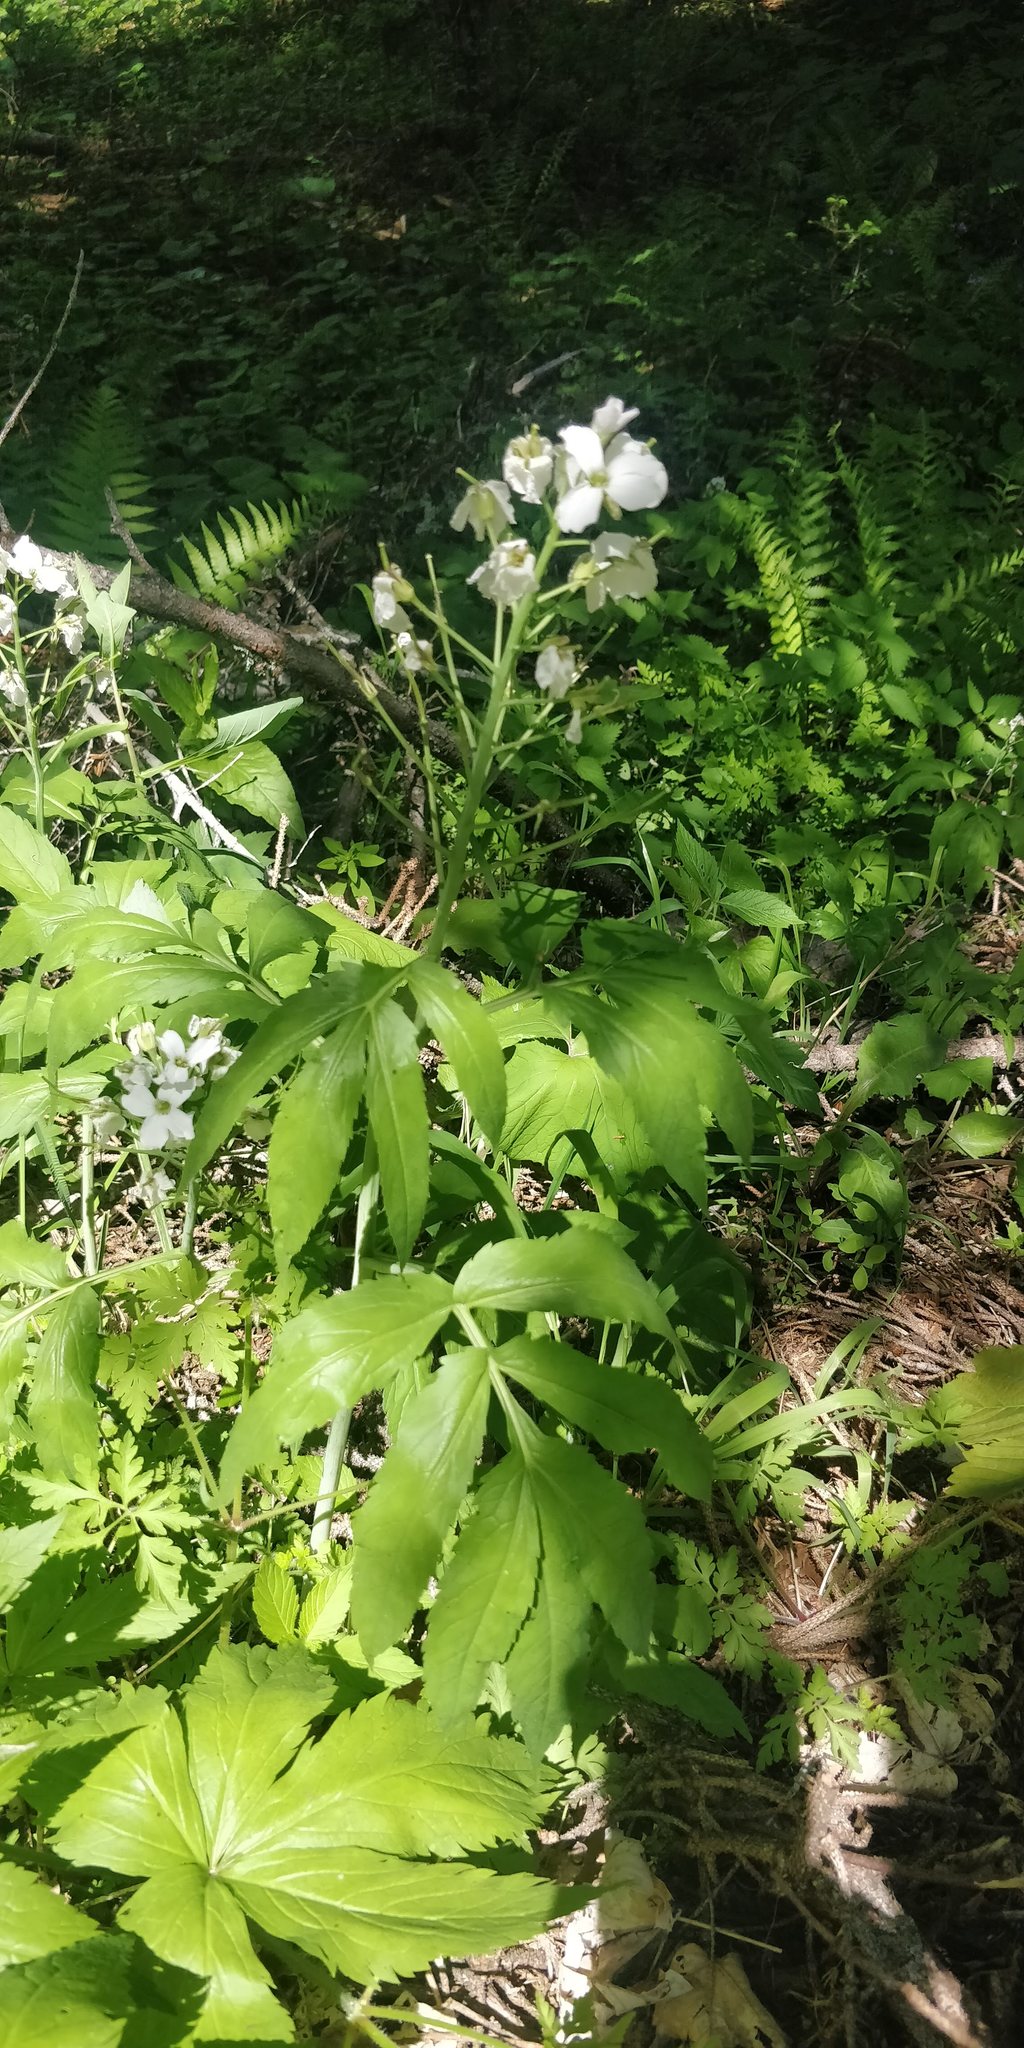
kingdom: Plantae
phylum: Tracheophyta
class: Magnoliopsida
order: Brassicales
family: Brassicaceae
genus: Cardamine
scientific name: Cardamine heptaphylla
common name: Pinnate coralroot
